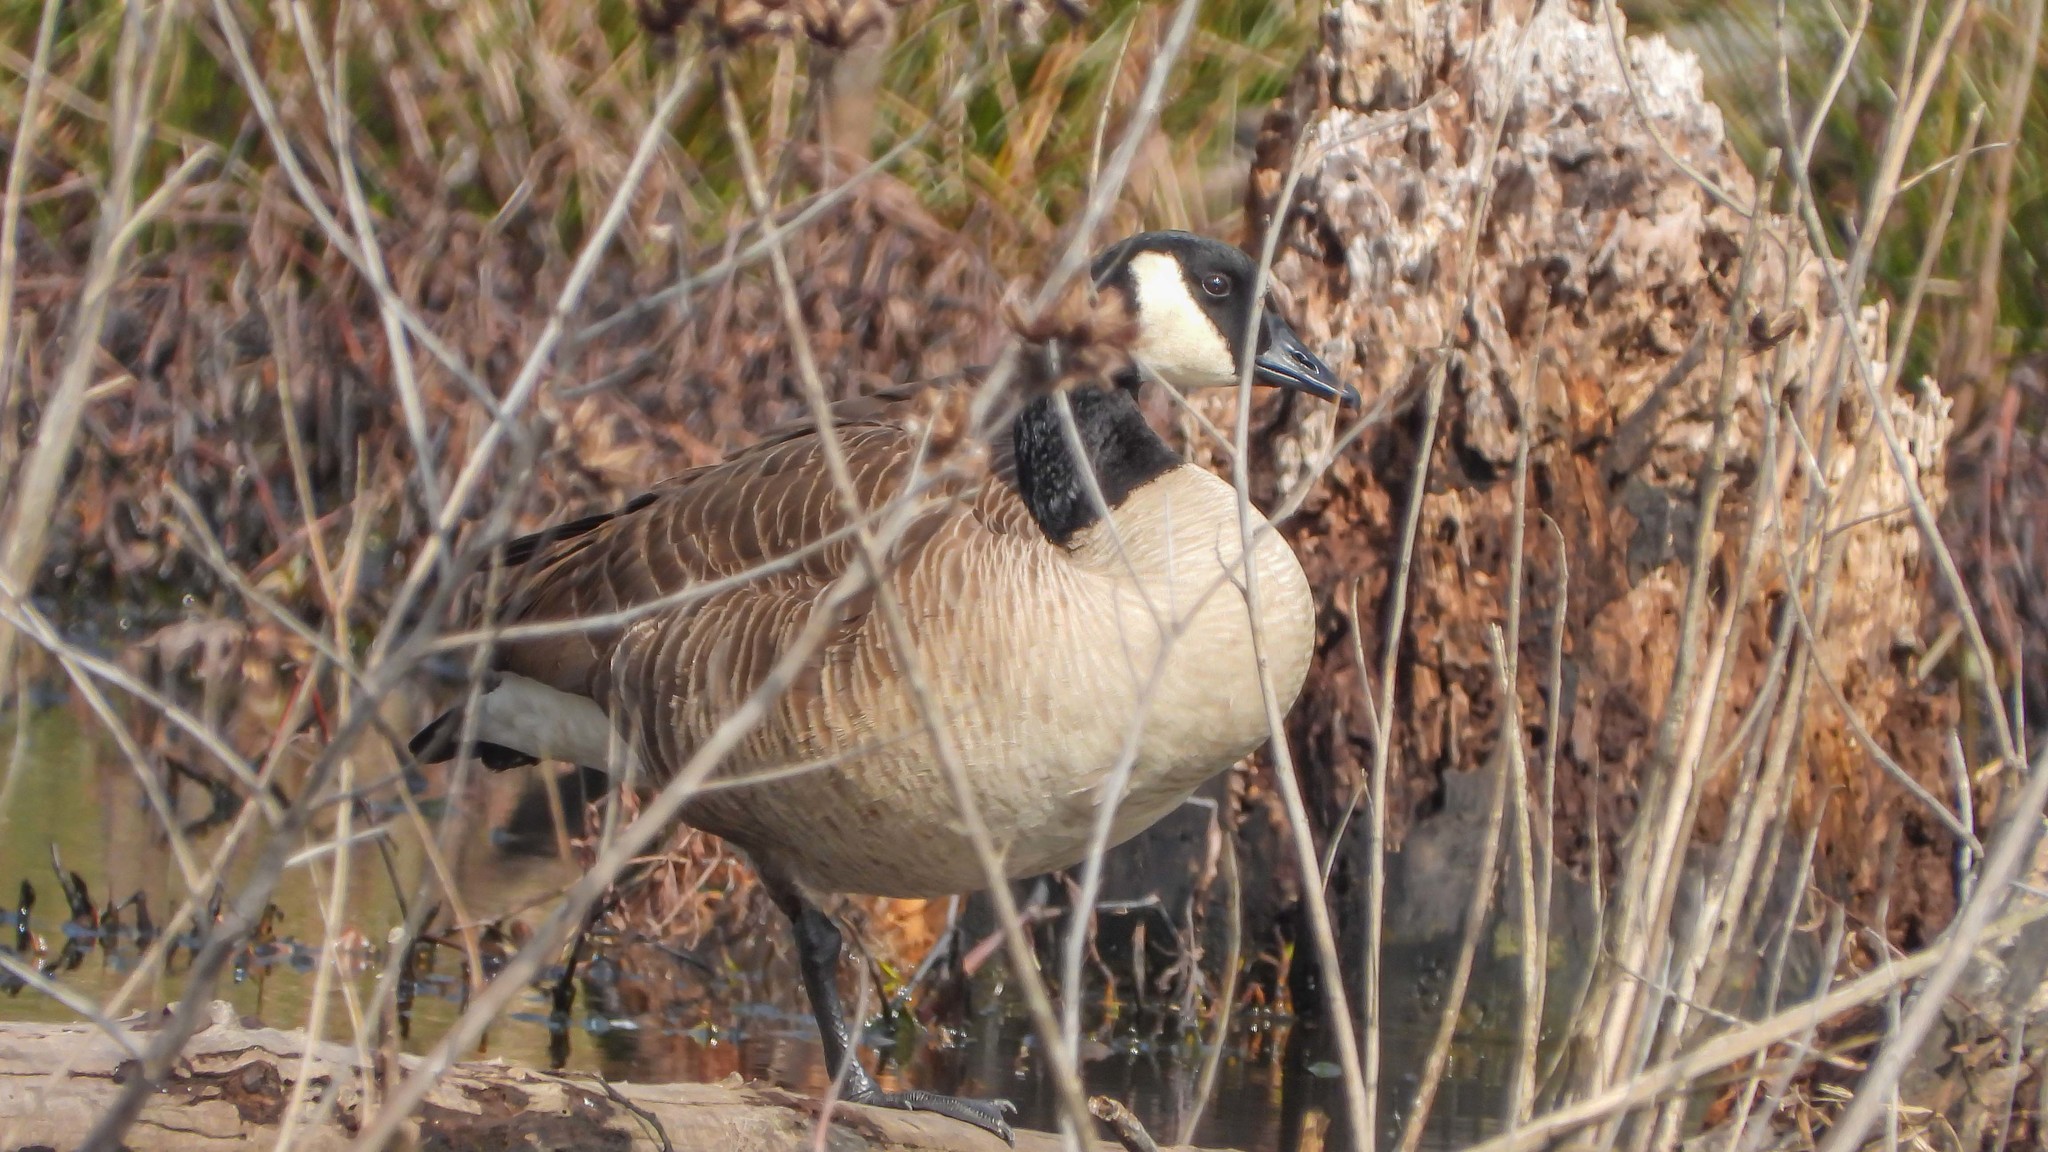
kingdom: Animalia
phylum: Chordata
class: Aves
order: Anseriformes
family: Anatidae
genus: Branta
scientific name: Branta canadensis
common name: Canada goose
